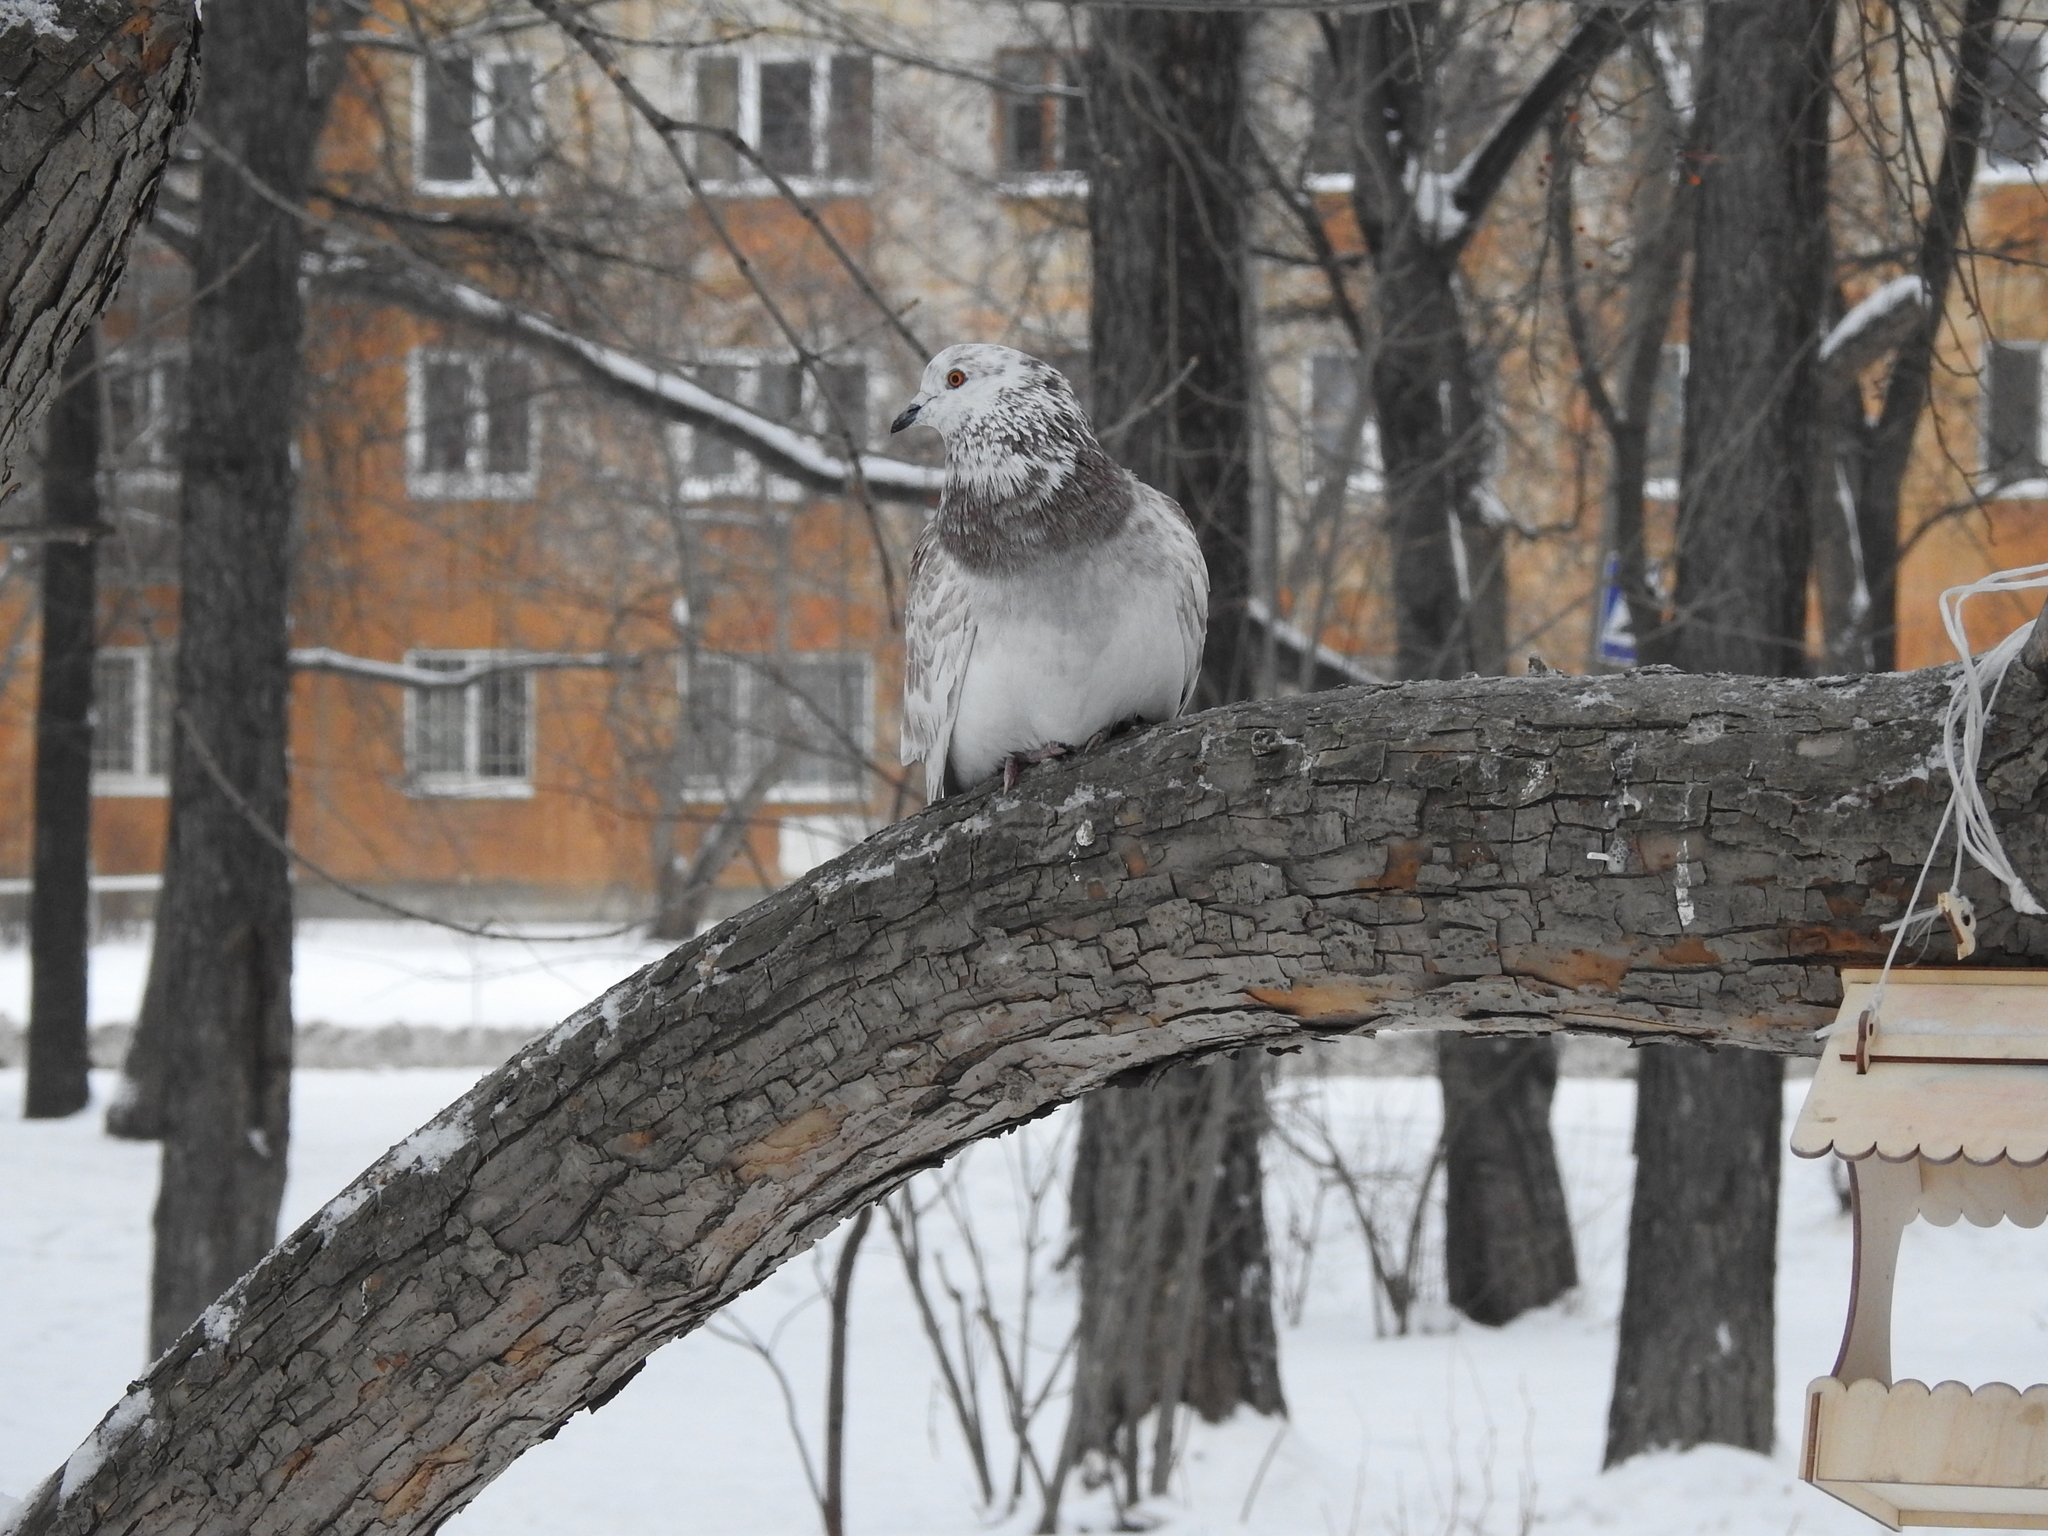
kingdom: Animalia
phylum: Chordata
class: Aves
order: Columbiformes
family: Columbidae
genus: Columba
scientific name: Columba livia
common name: Rock pigeon
